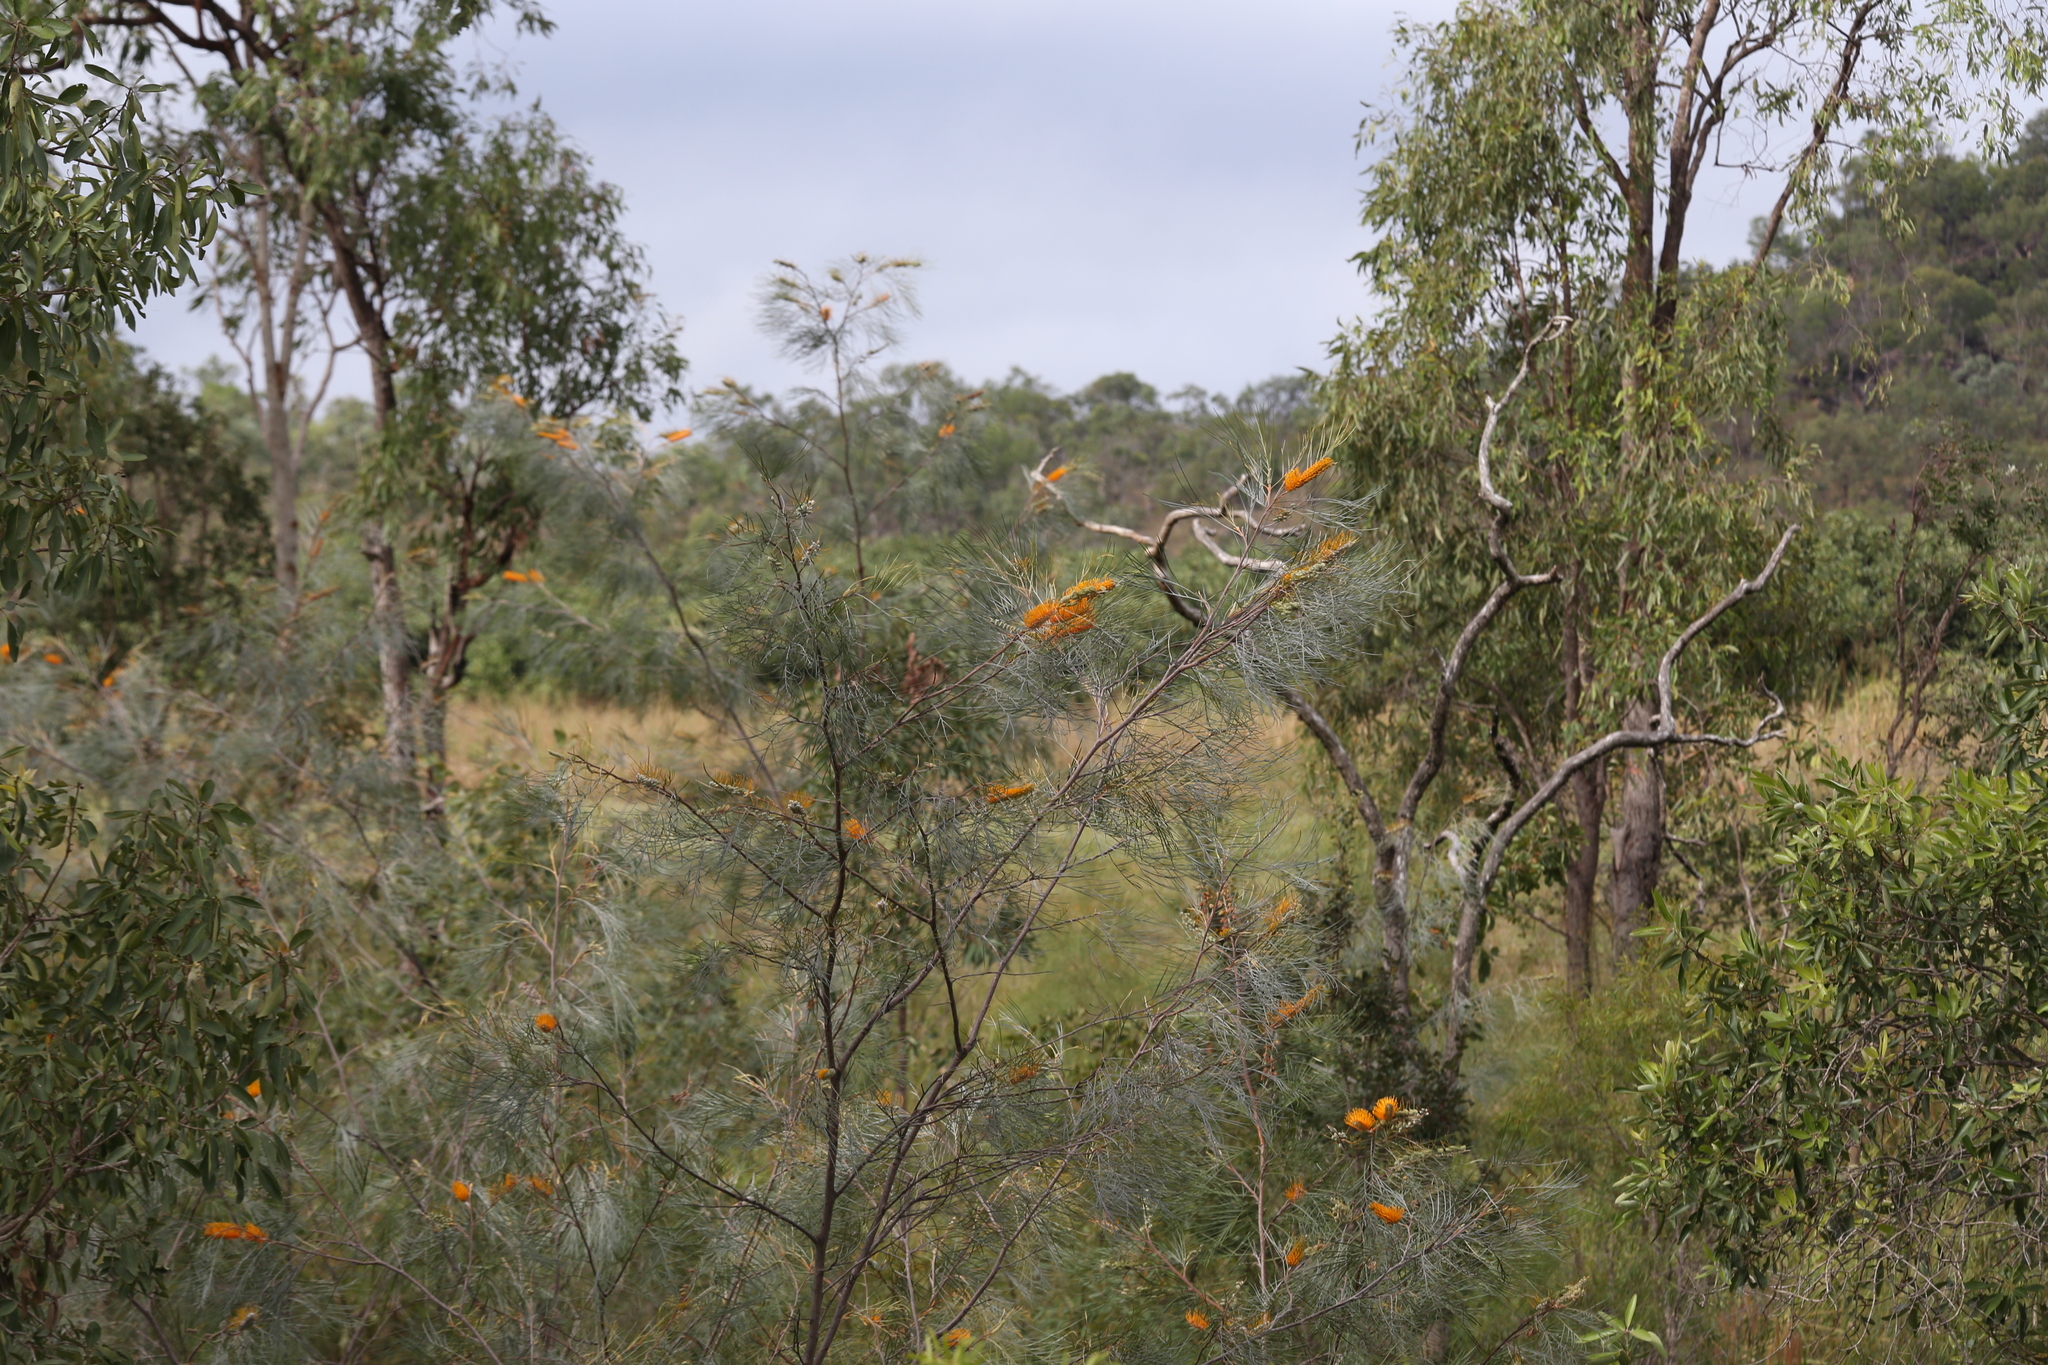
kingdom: Plantae
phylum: Tracheophyta
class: Magnoliopsida
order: Proteales
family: Proteaceae
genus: Grevillea
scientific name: Grevillea pteridifolia
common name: Golden grevillea
